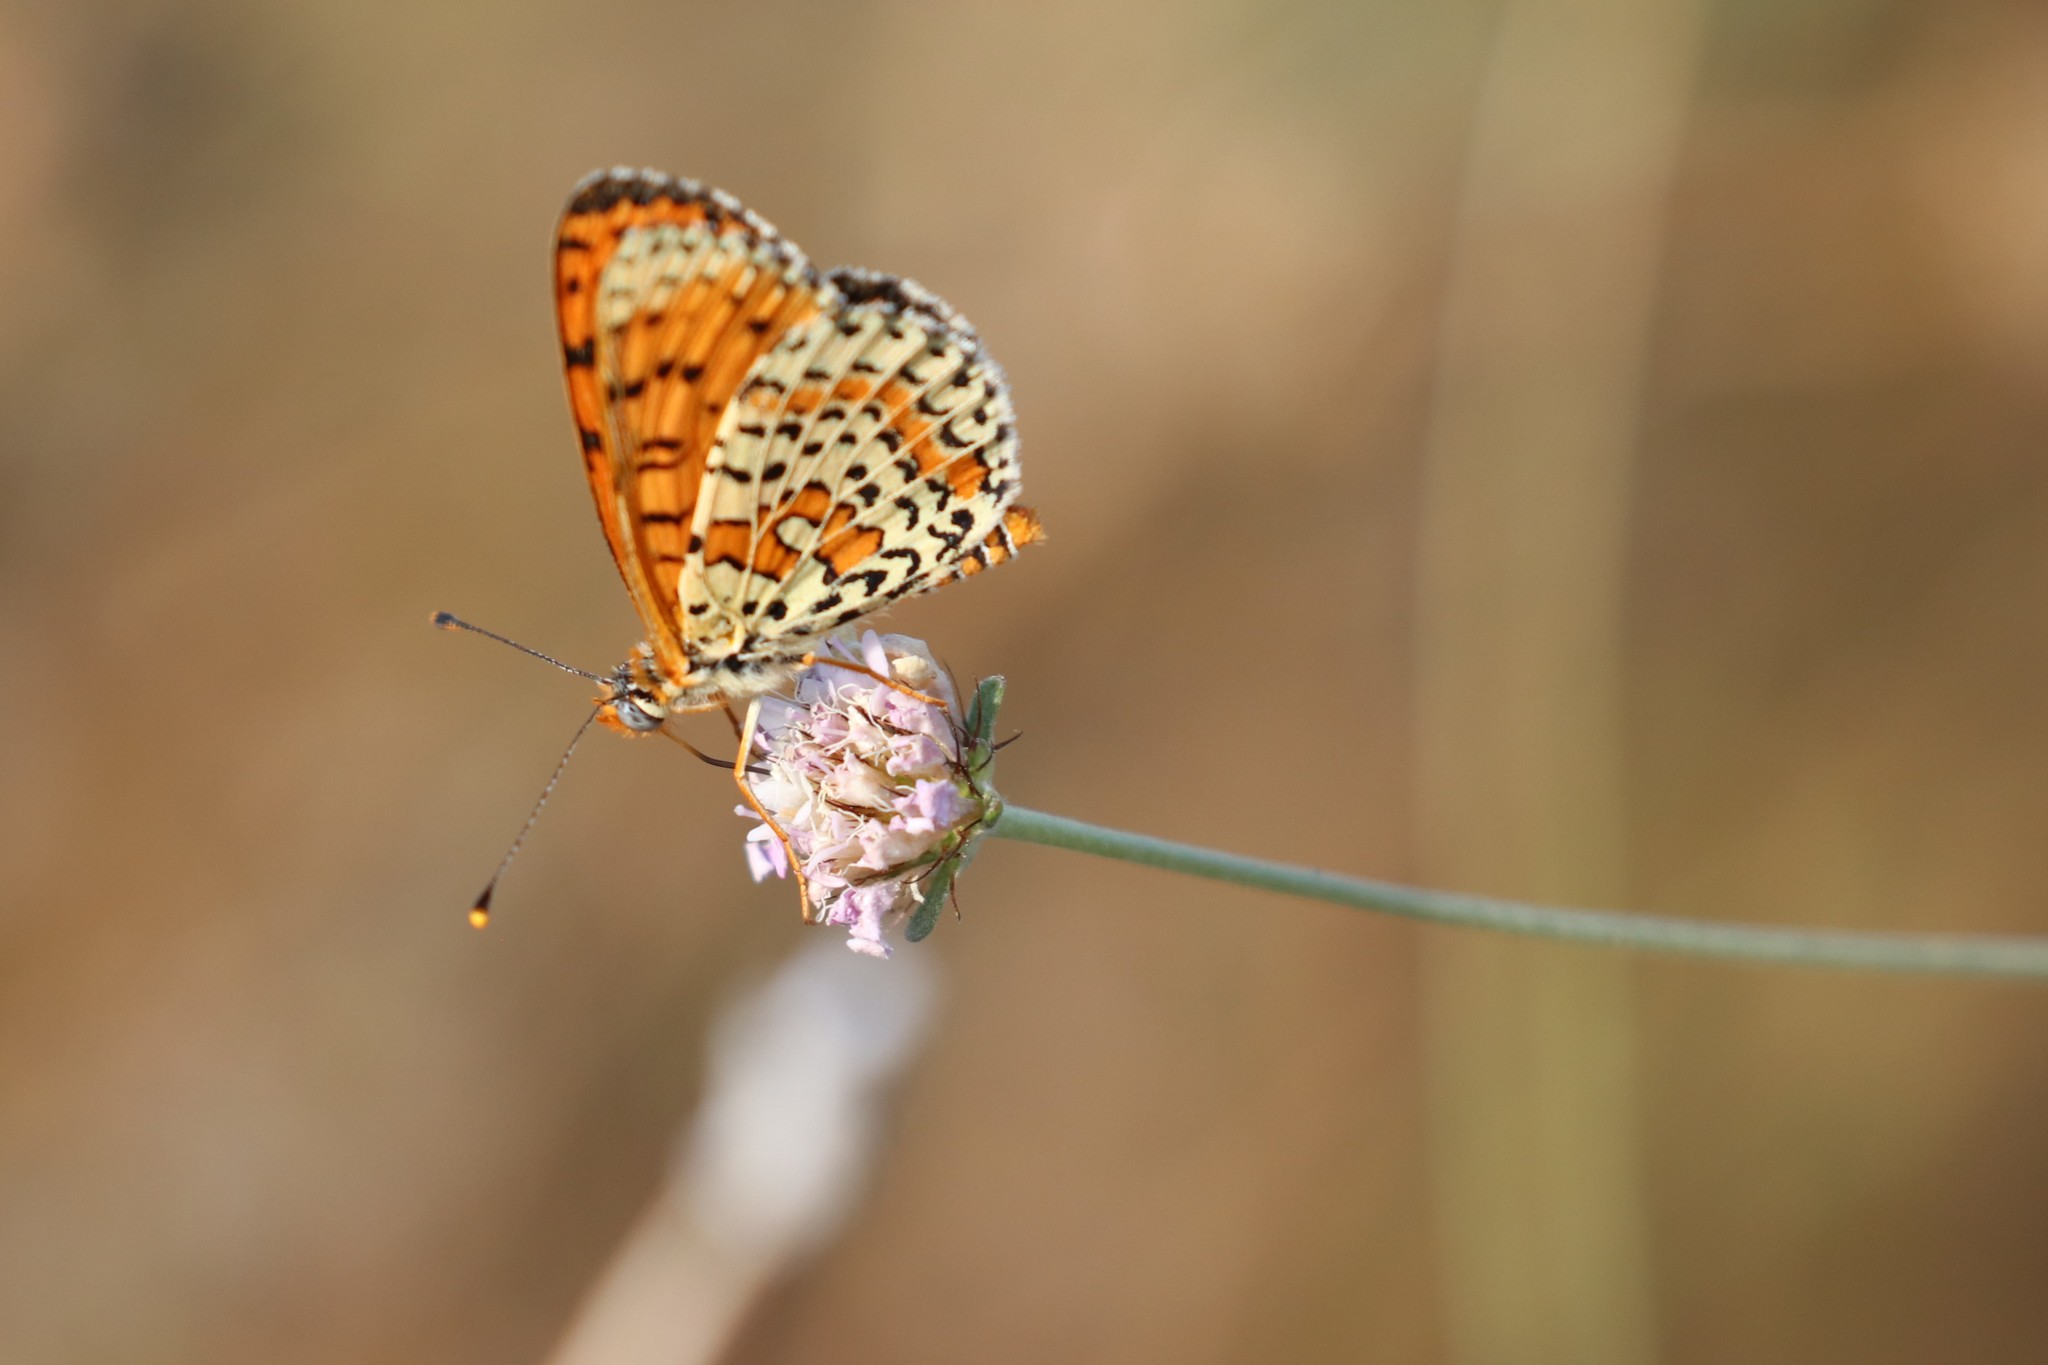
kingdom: Animalia
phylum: Arthropoda
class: Insecta
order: Lepidoptera
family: Nymphalidae
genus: Melitaea
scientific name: Melitaea didyma
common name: Spotted fritillary
